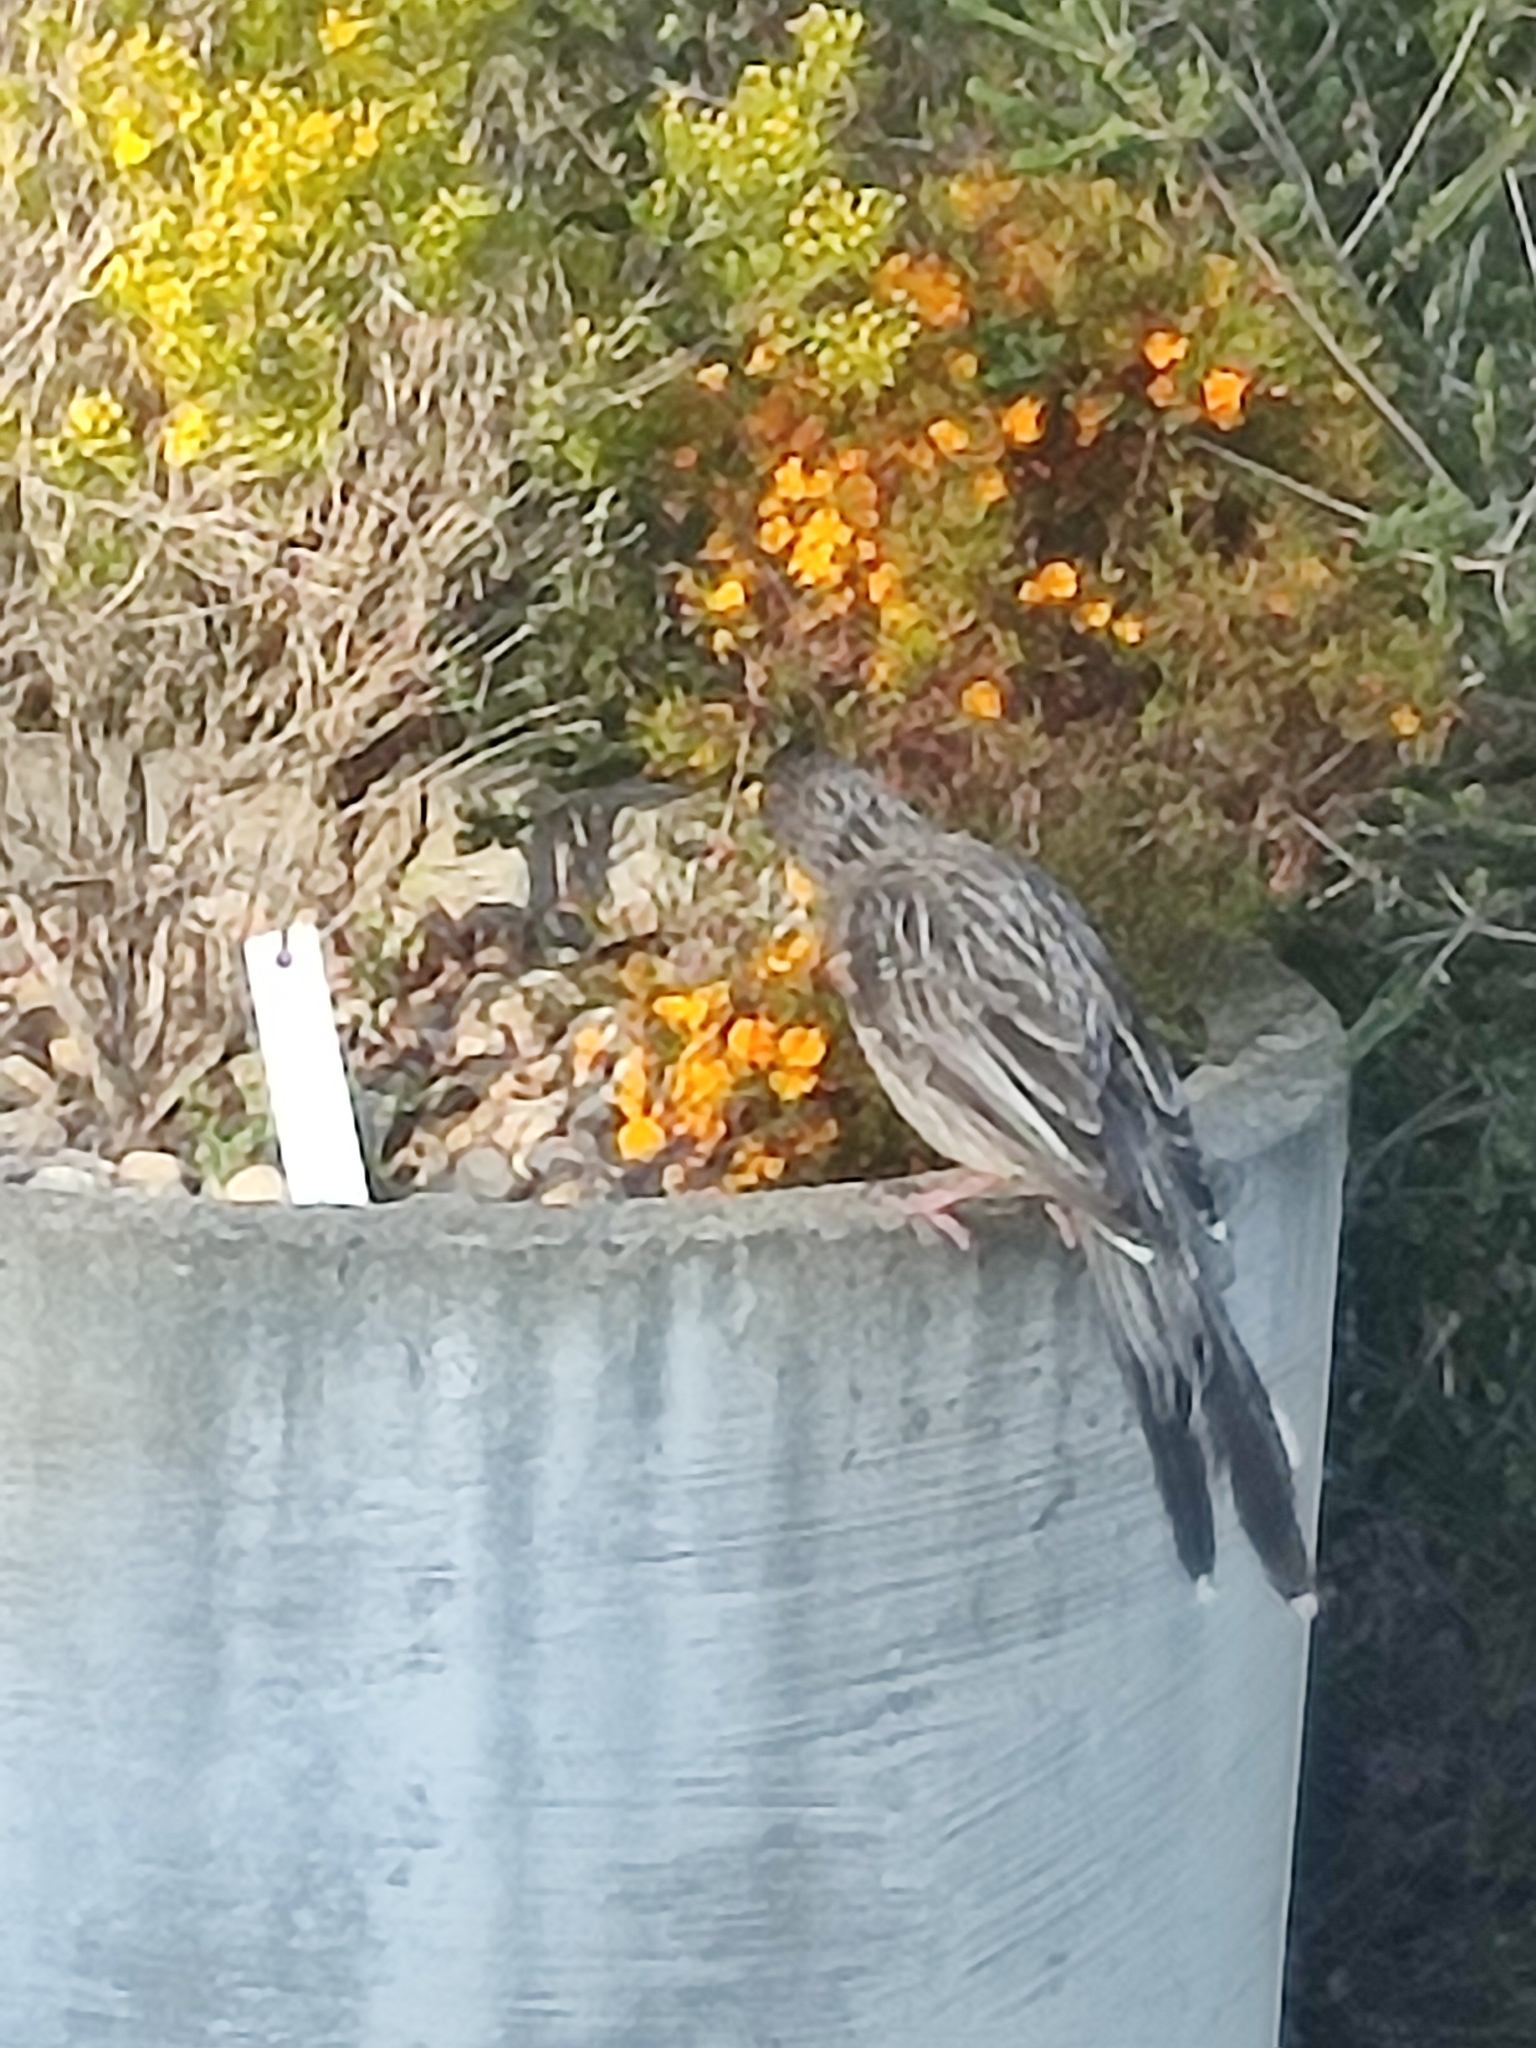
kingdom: Animalia
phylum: Chordata
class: Aves
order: Passeriformes
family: Meliphagidae
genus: Anthochaera
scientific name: Anthochaera carunculata
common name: Red wattlebird
